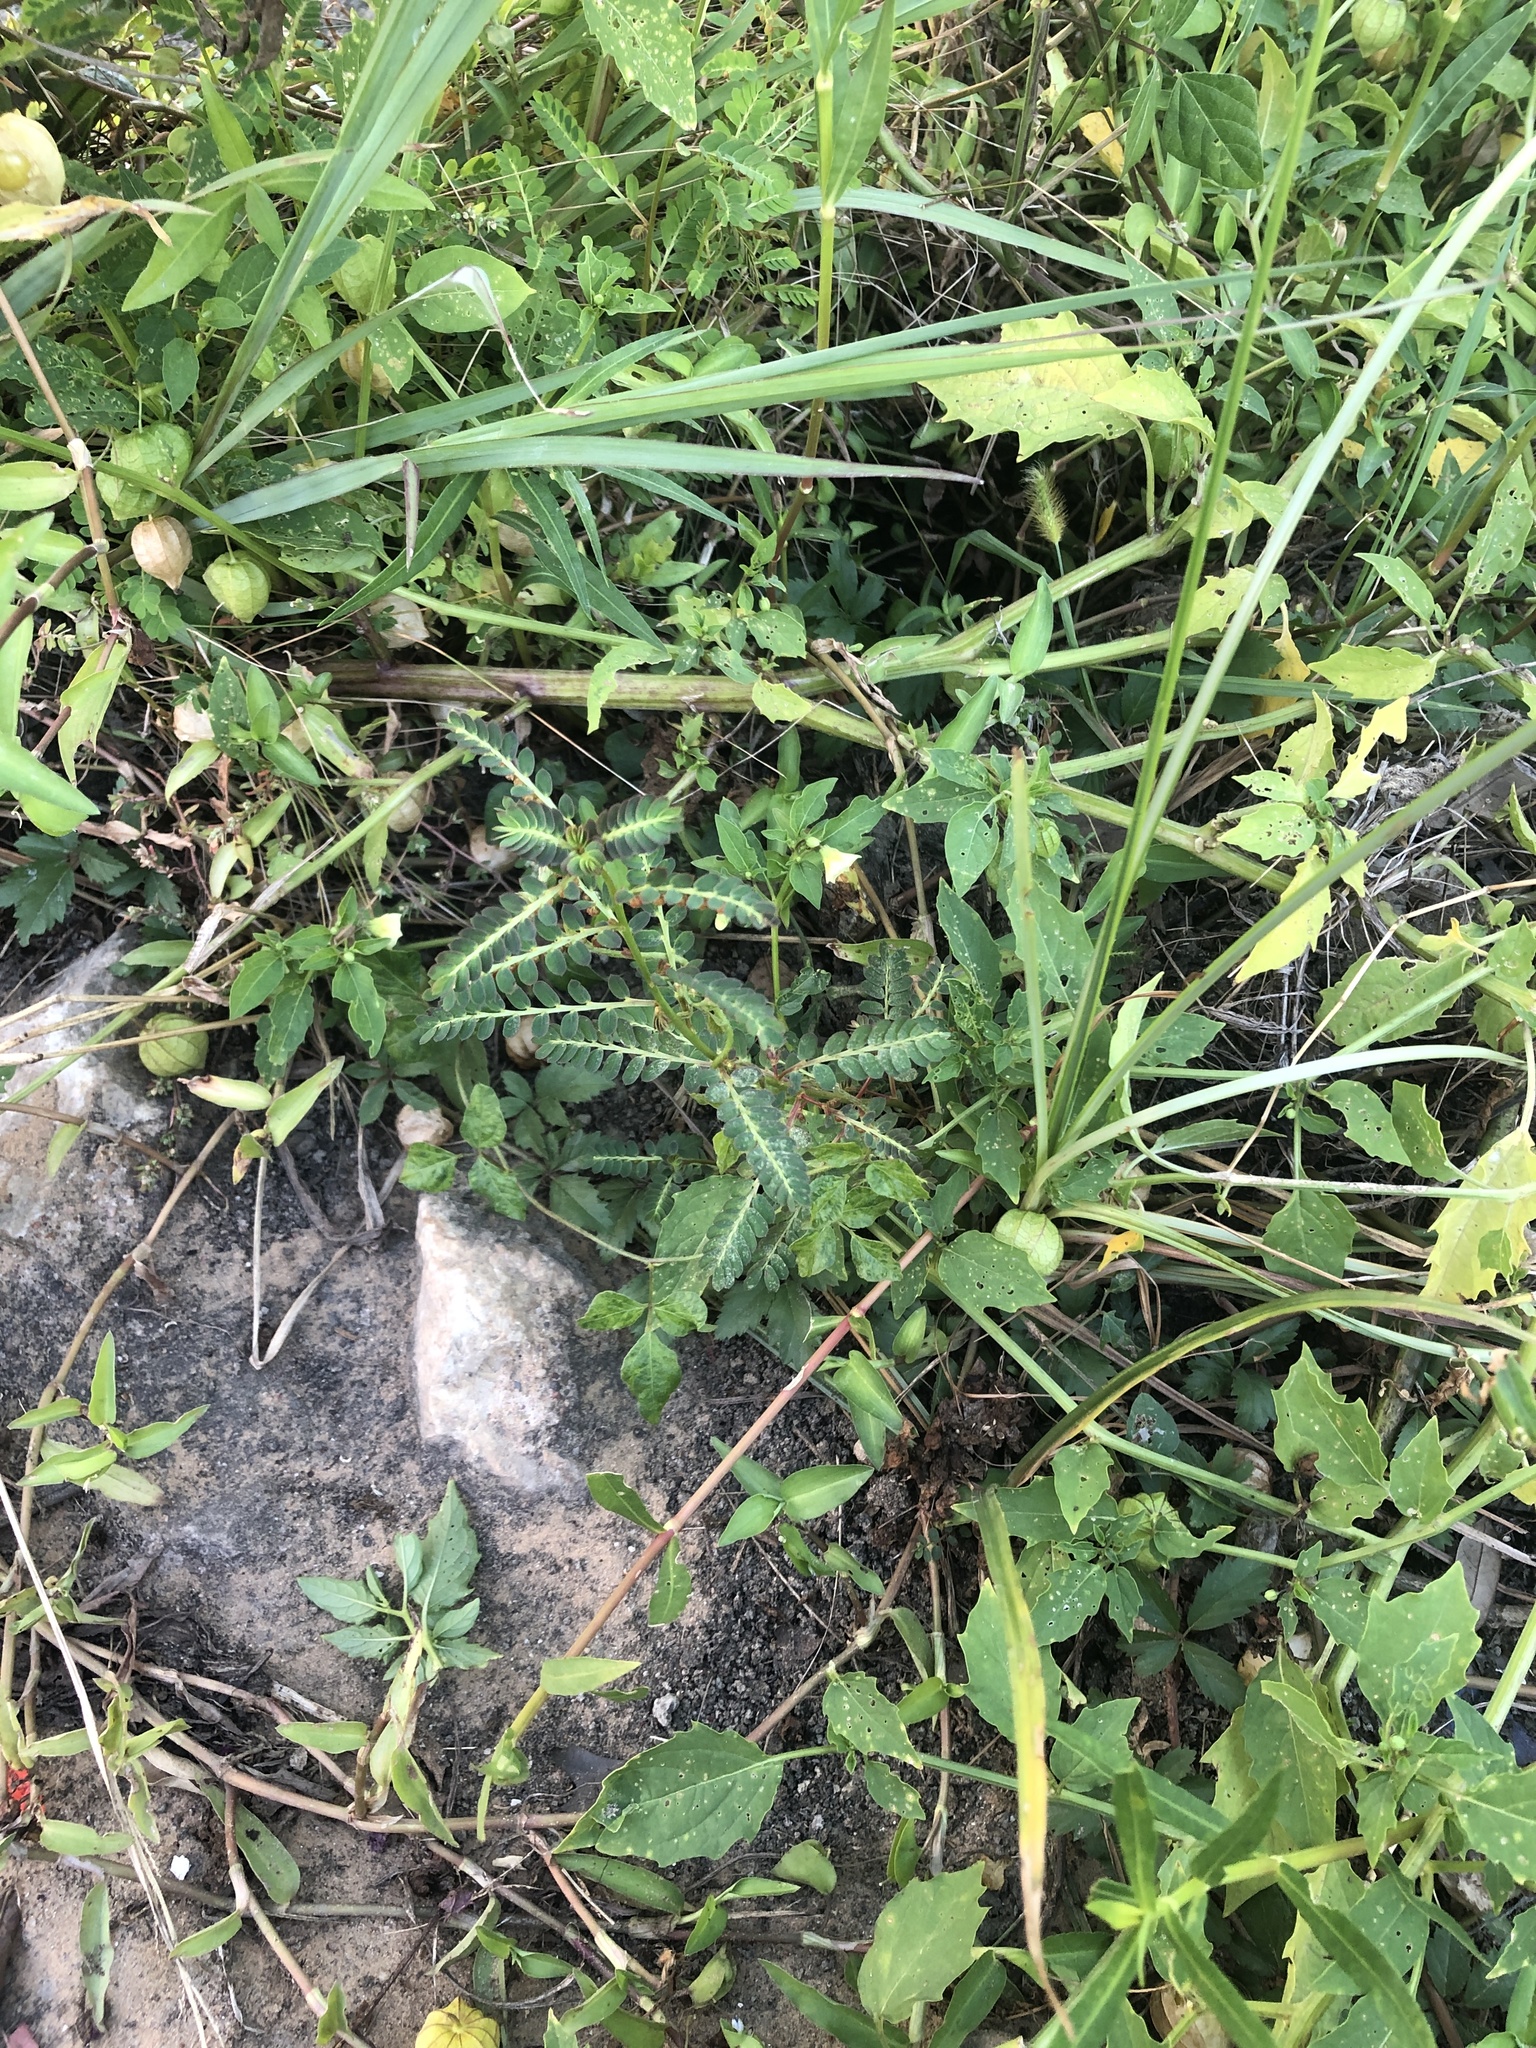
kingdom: Plantae
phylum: Tracheophyta
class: Magnoliopsida
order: Malpighiales
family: Phyllanthaceae
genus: Phyllanthus
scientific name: Phyllanthus urinaria
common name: Chamber bitter
